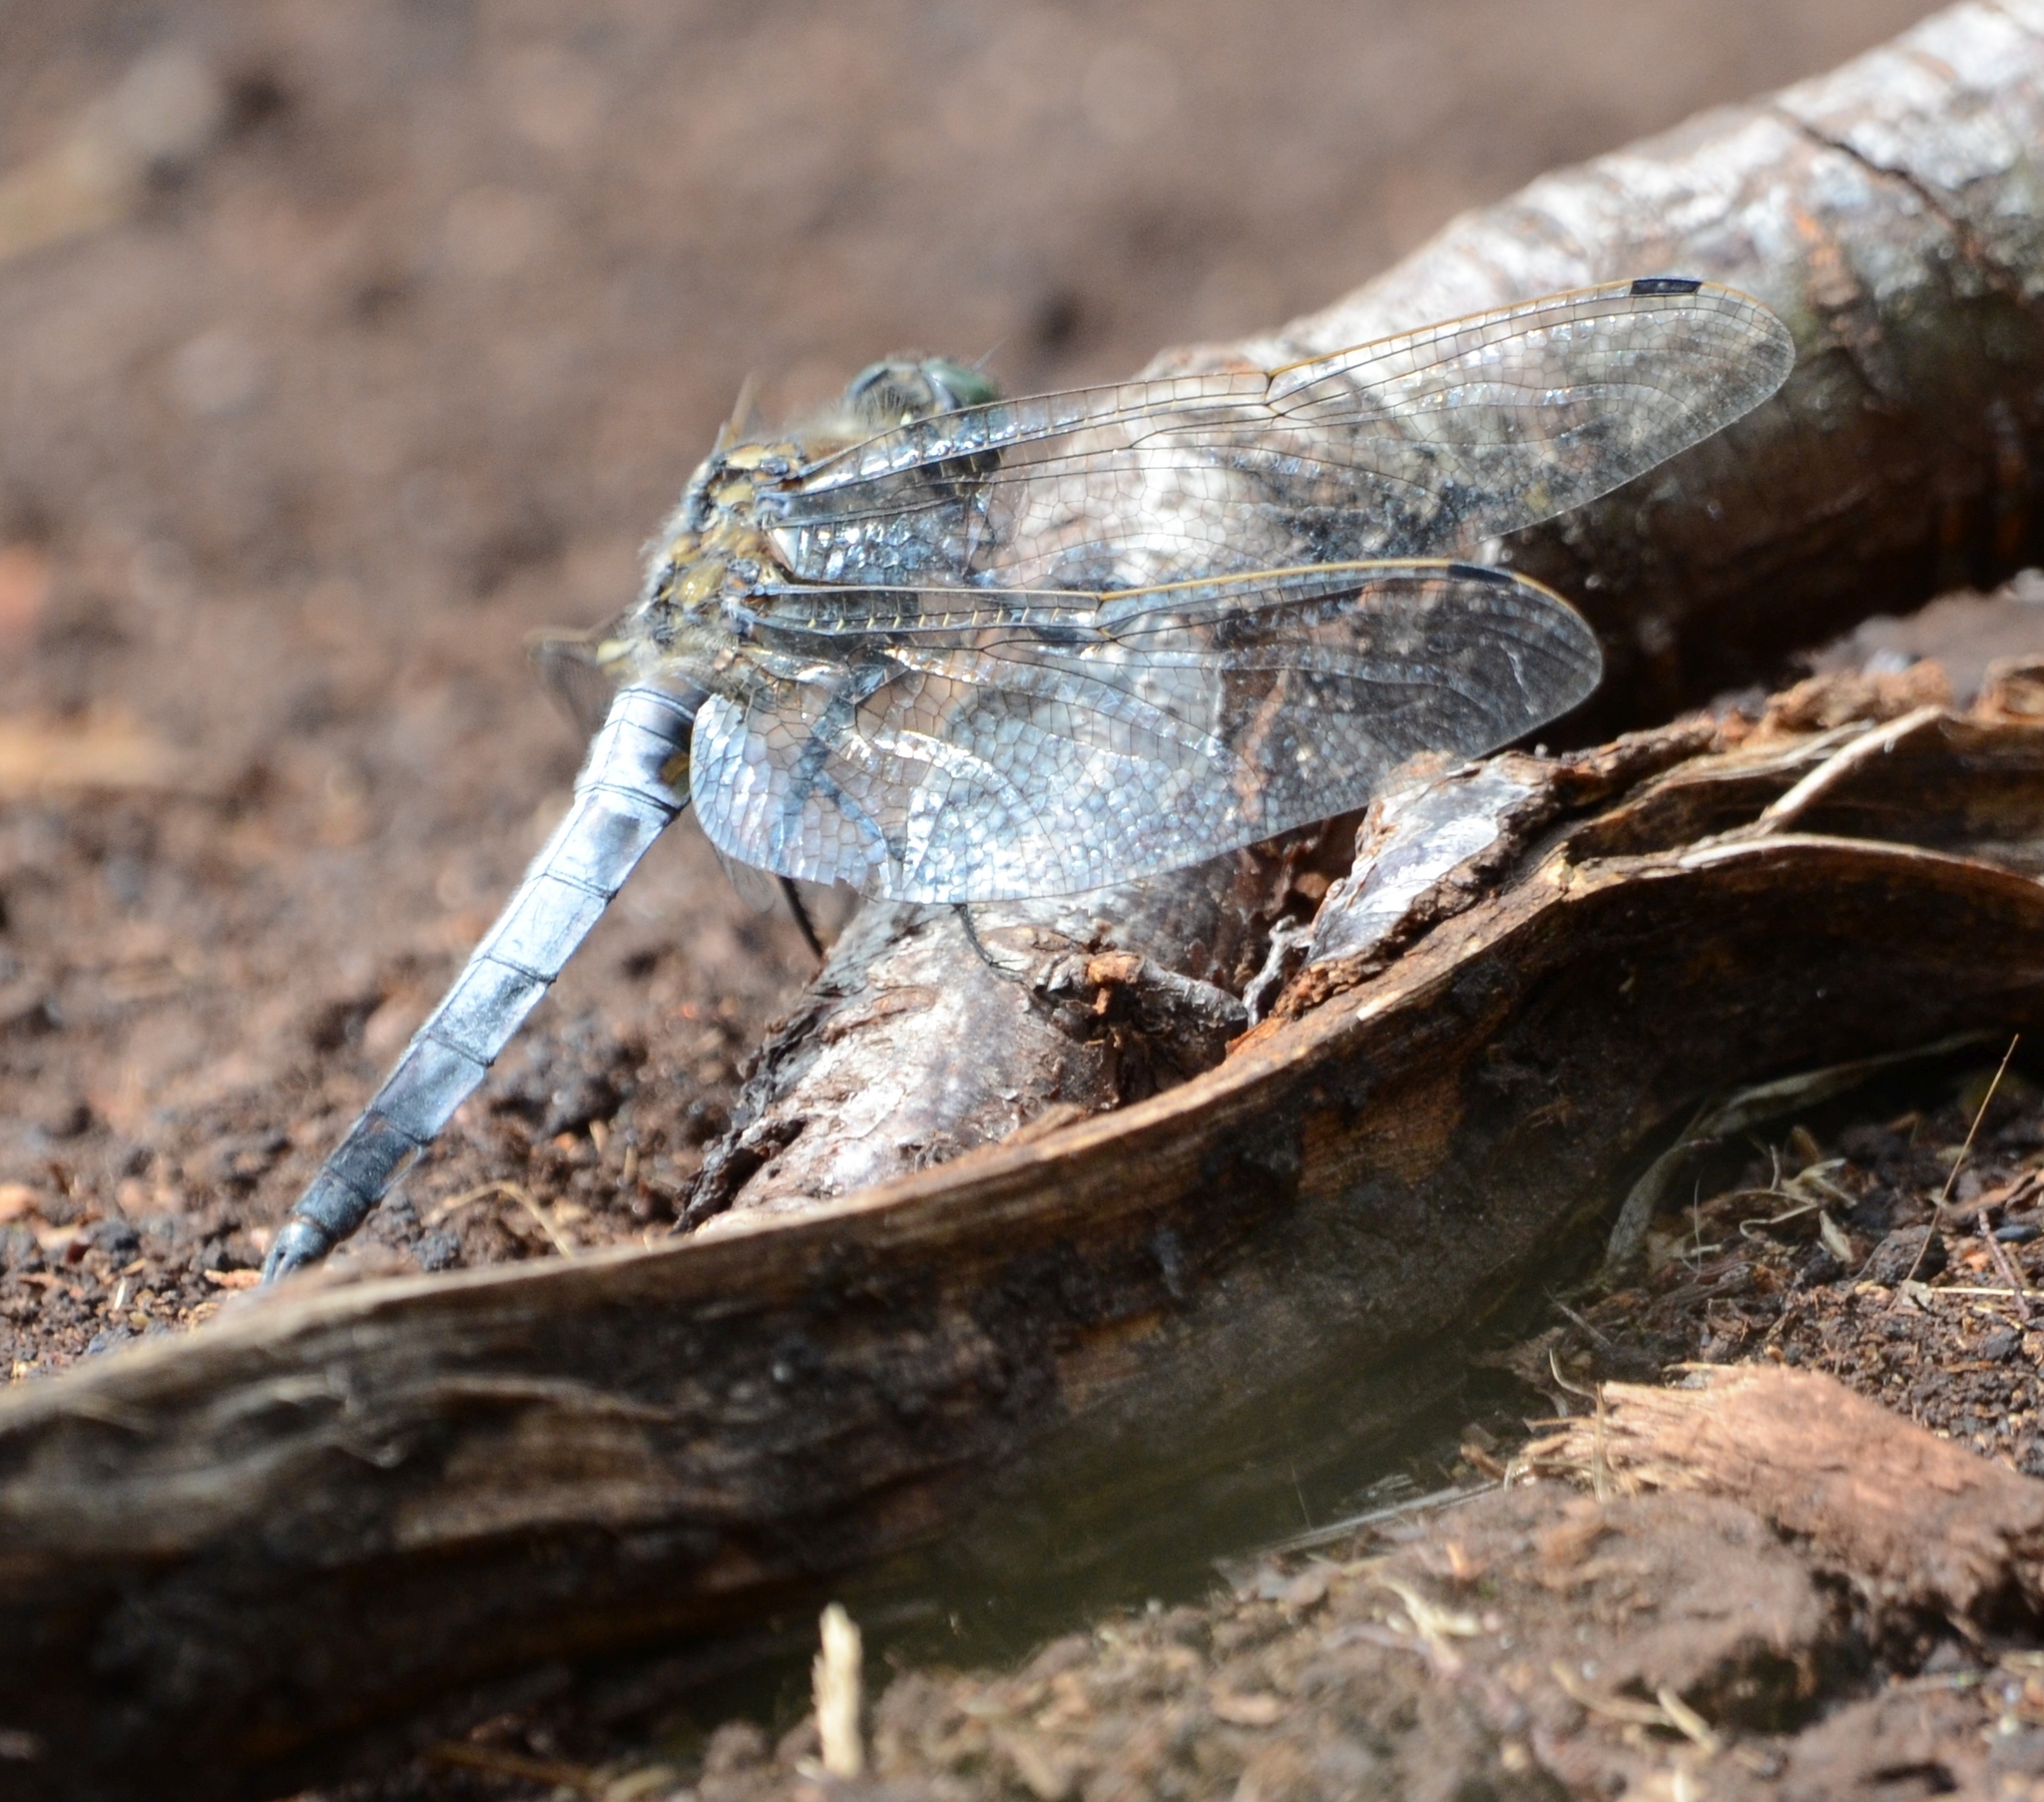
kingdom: Animalia
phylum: Arthropoda
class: Insecta
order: Odonata
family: Libellulidae
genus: Orthetrum
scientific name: Orthetrum cancellatum
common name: Black-tailed skimmer
